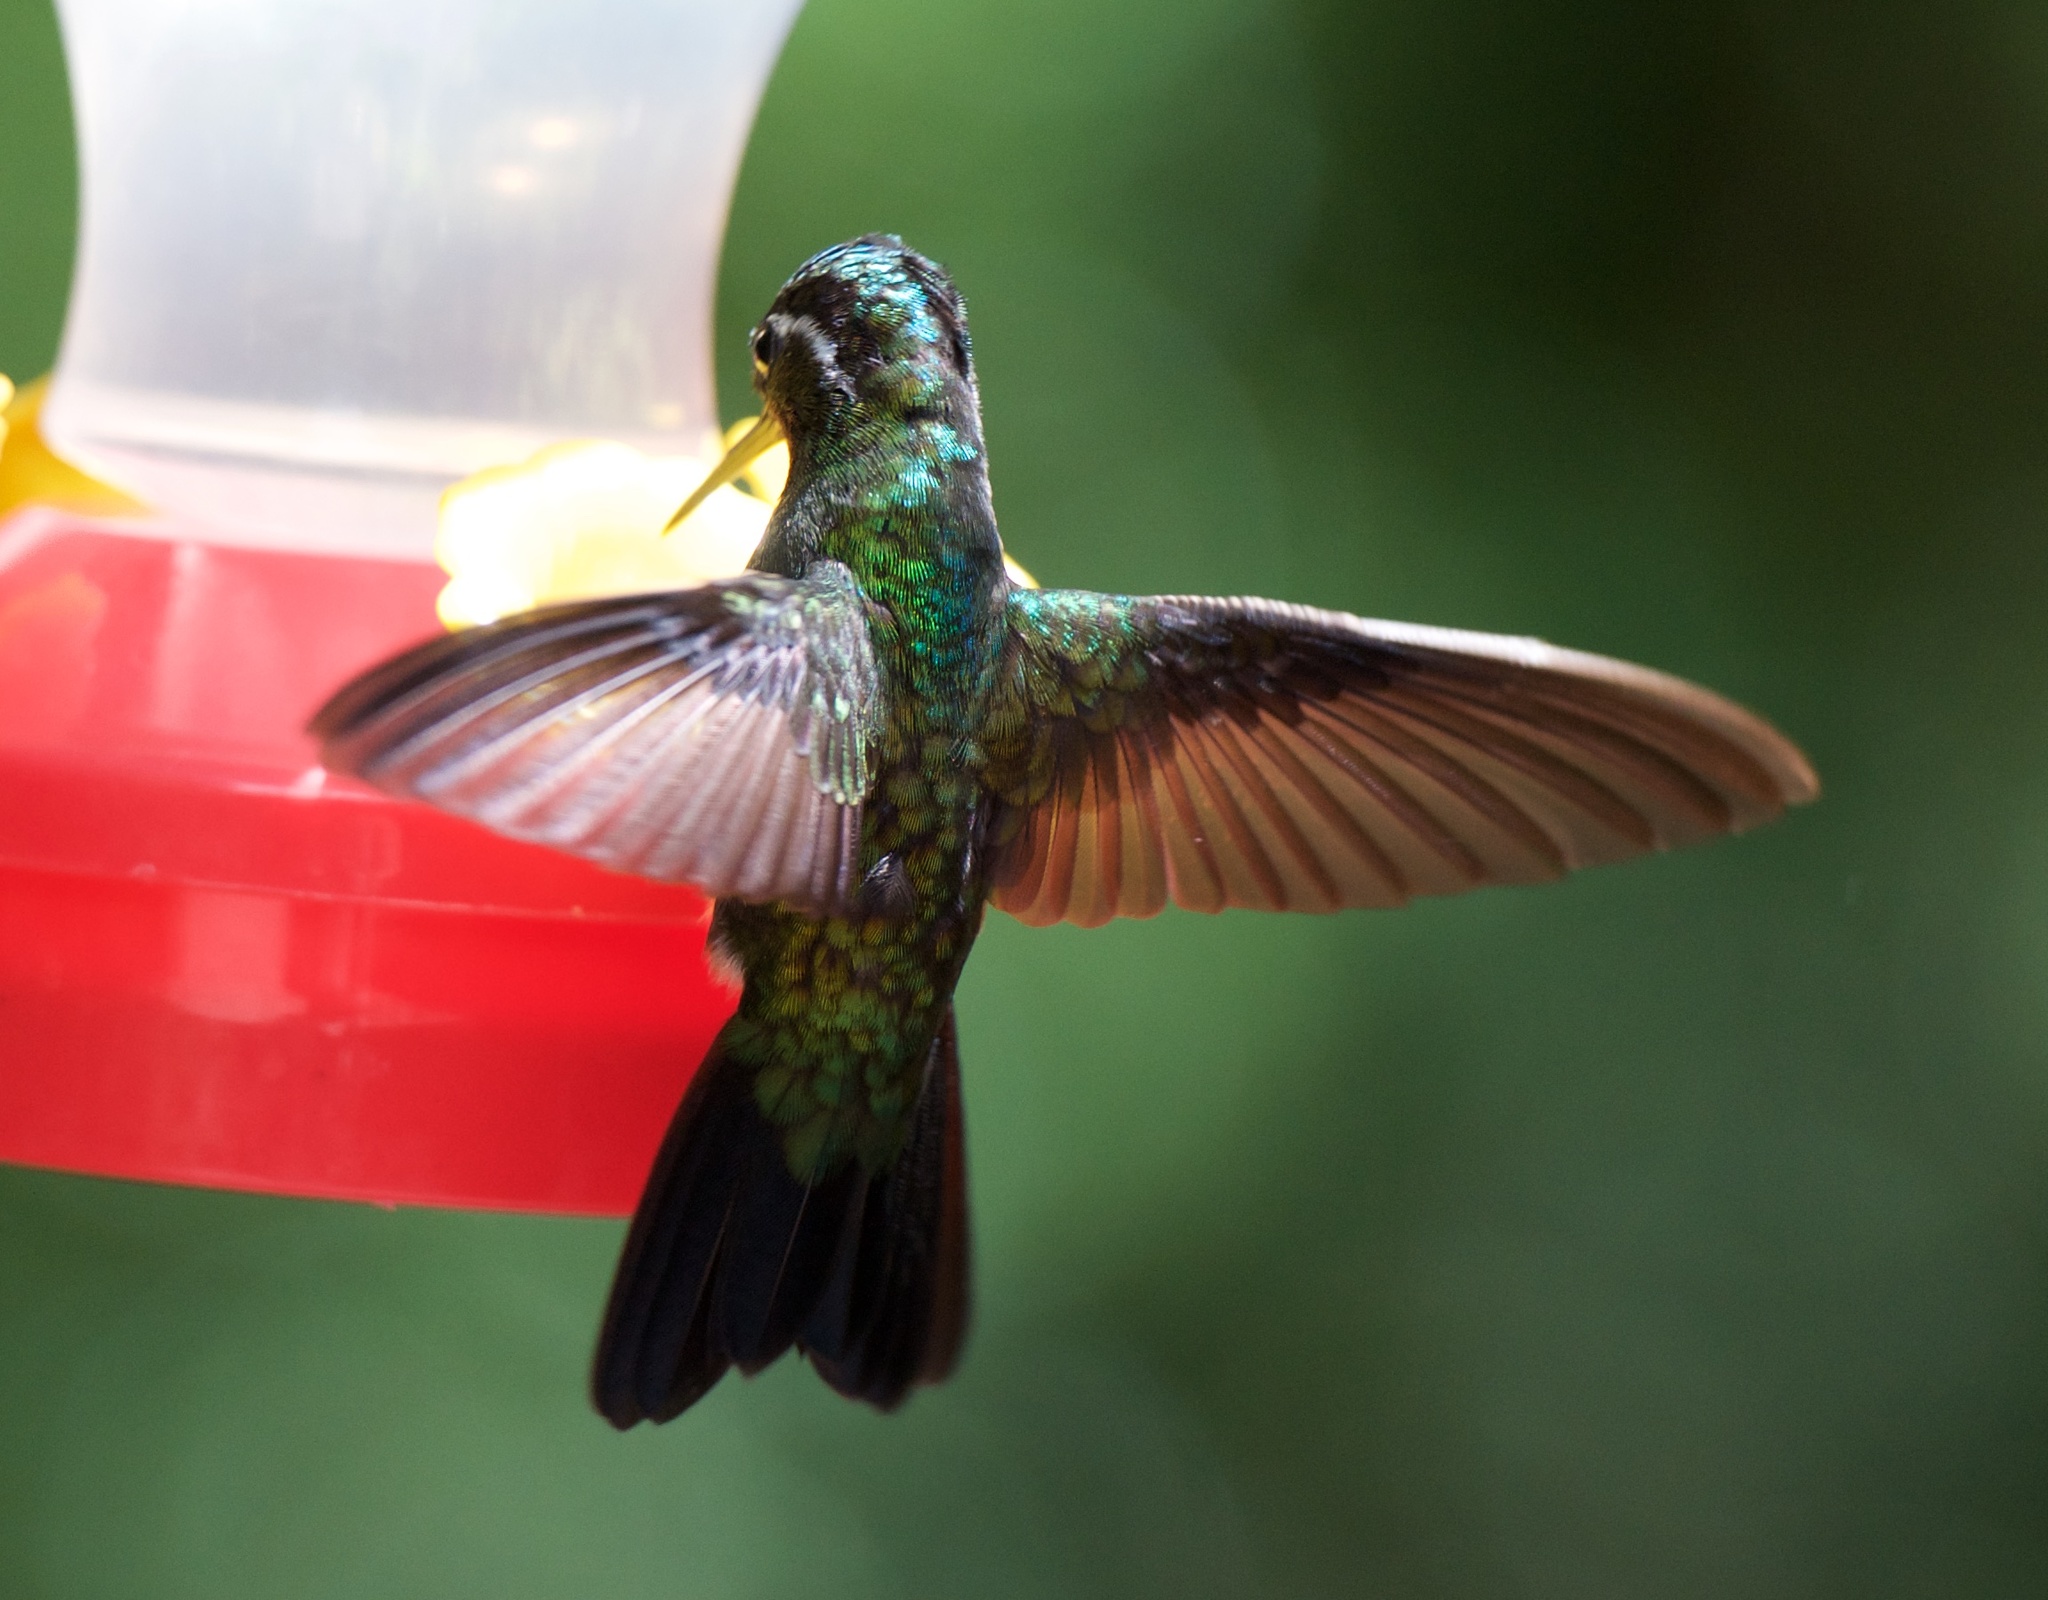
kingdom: Animalia
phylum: Chordata
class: Aves
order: Apodiformes
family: Trochilidae
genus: Lampornis
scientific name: Lampornis calolaemus
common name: Purple-throated mountain-gem
